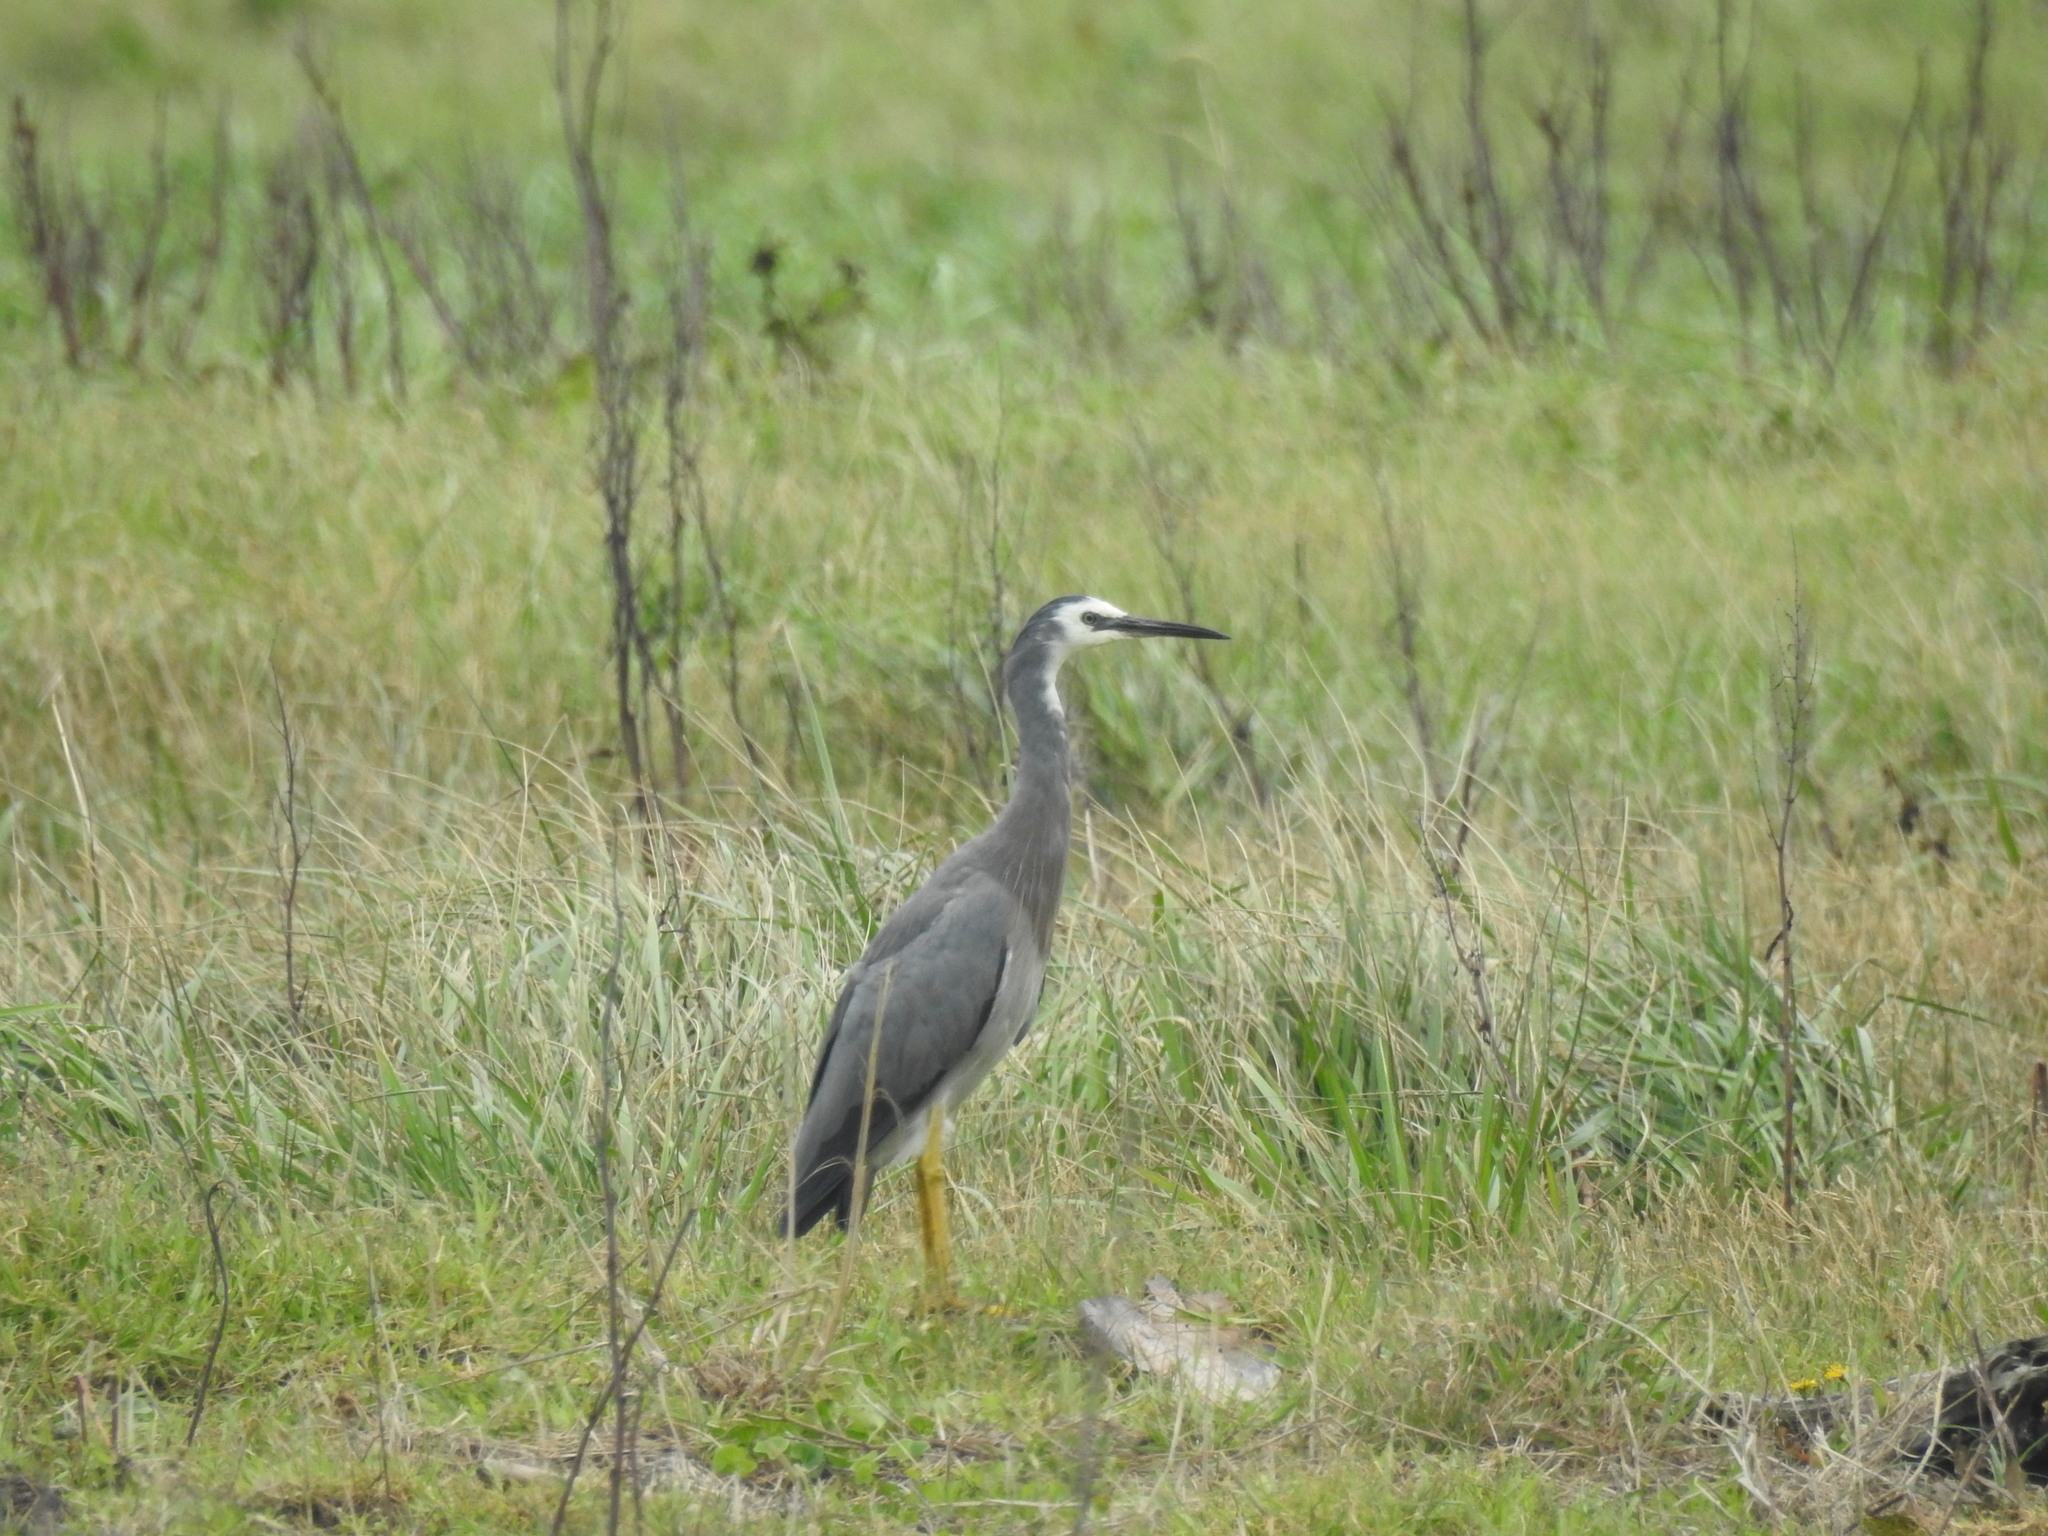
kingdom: Animalia
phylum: Chordata
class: Aves
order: Pelecaniformes
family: Ardeidae
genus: Egretta
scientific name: Egretta novaehollandiae
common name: White-faced heron
